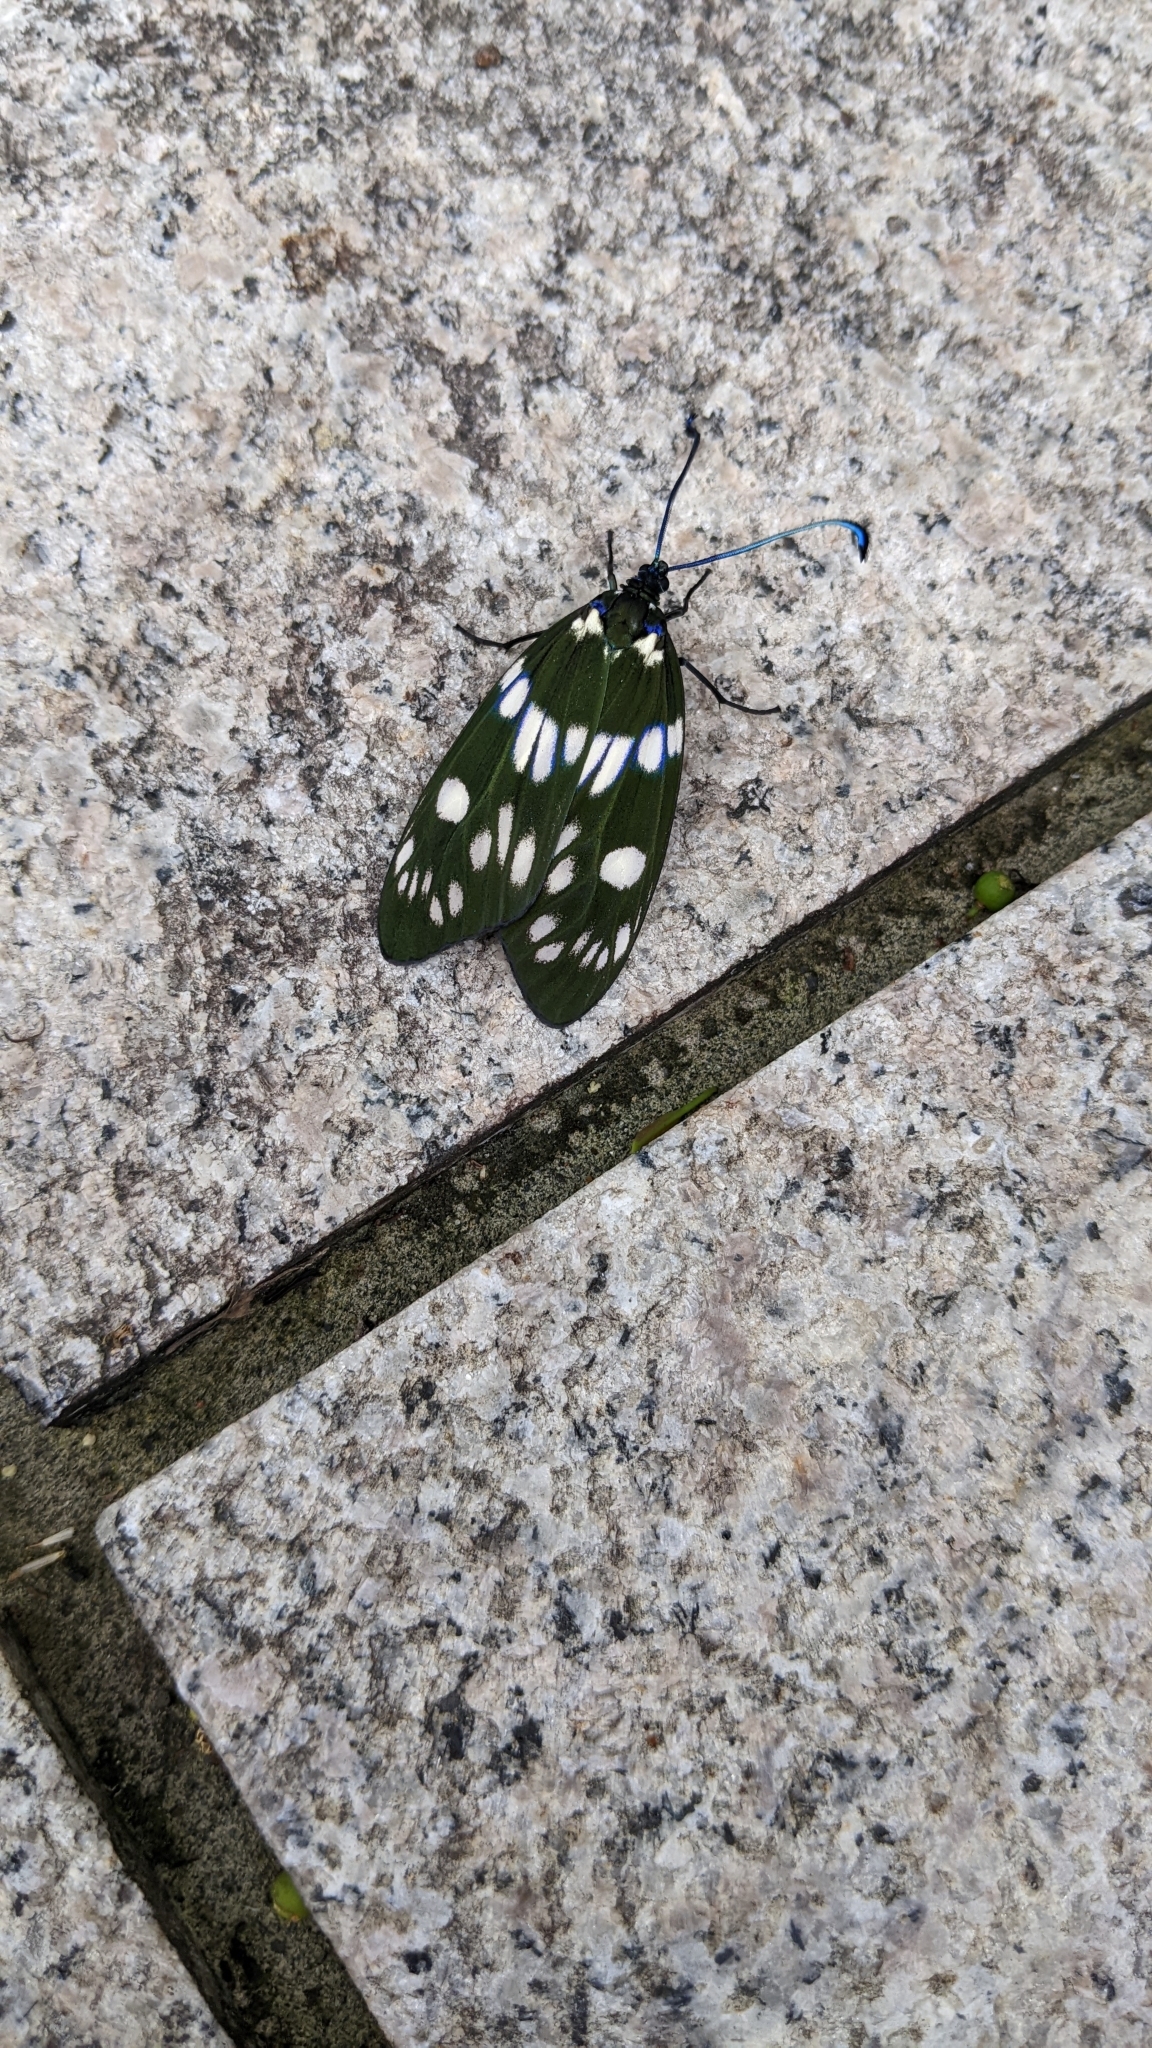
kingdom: Animalia
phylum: Arthropoda
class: Insecta
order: Lepidoptera
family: Zygaenidae
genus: Eterusia
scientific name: Eterusia aedea
